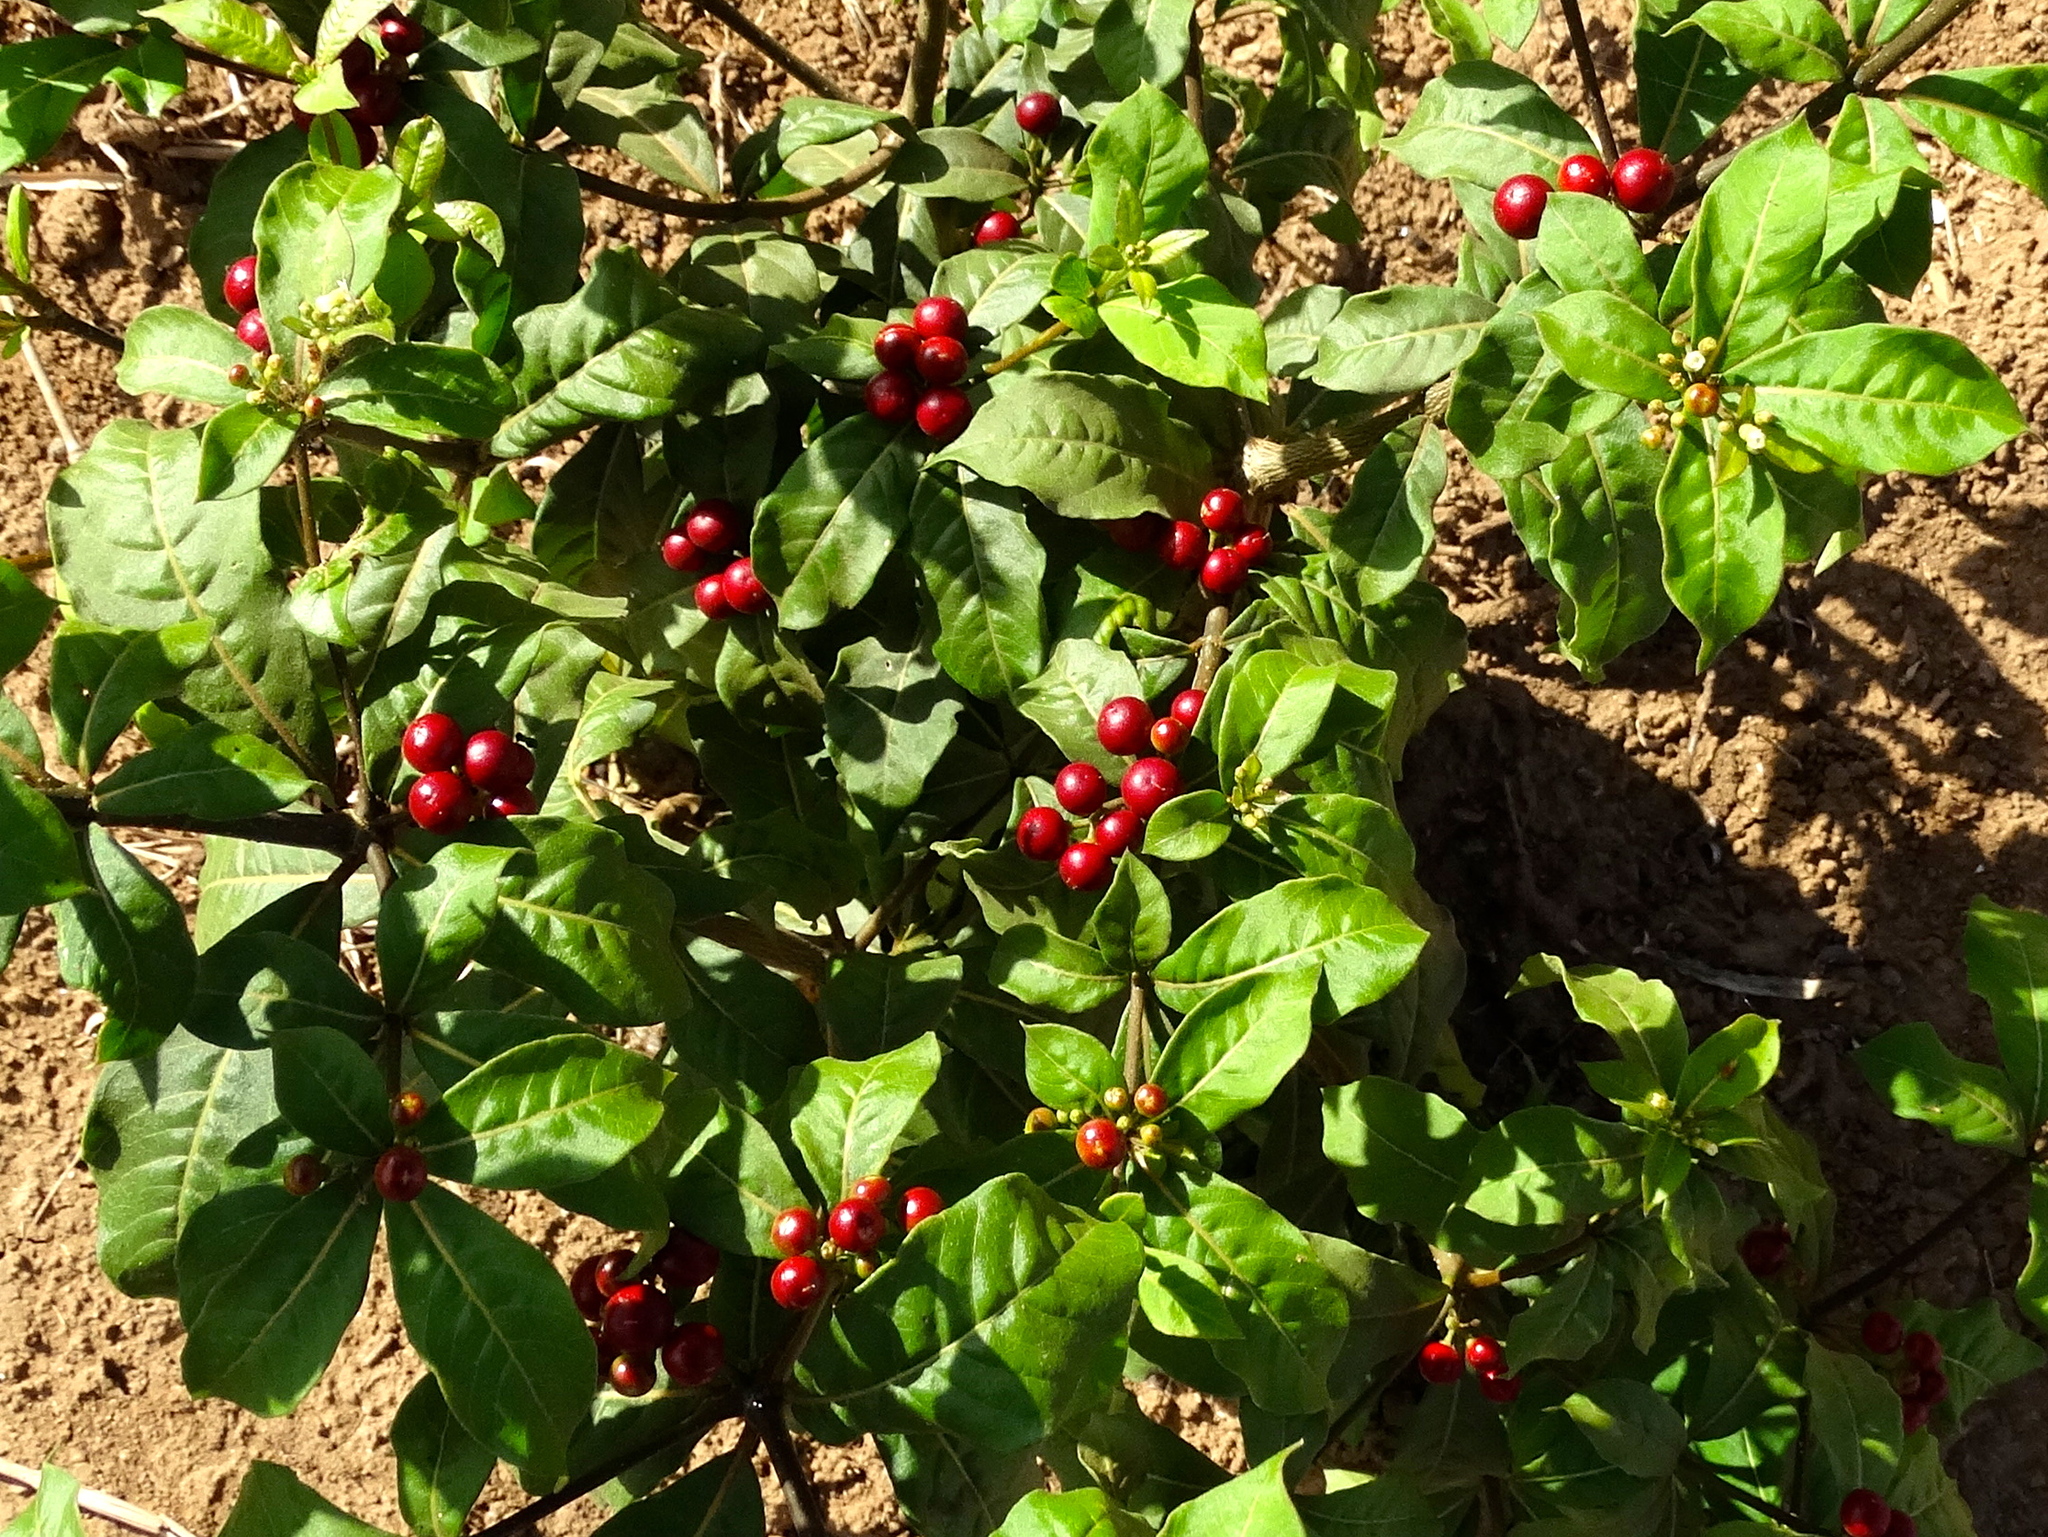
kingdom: Plantae
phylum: Tracheophyta
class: Magnoliopsida
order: Gentianales
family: Apocynaceae
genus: Rauvolfia
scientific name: Rauvolfia tetraphylla
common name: Four-leaf devil-pepper
